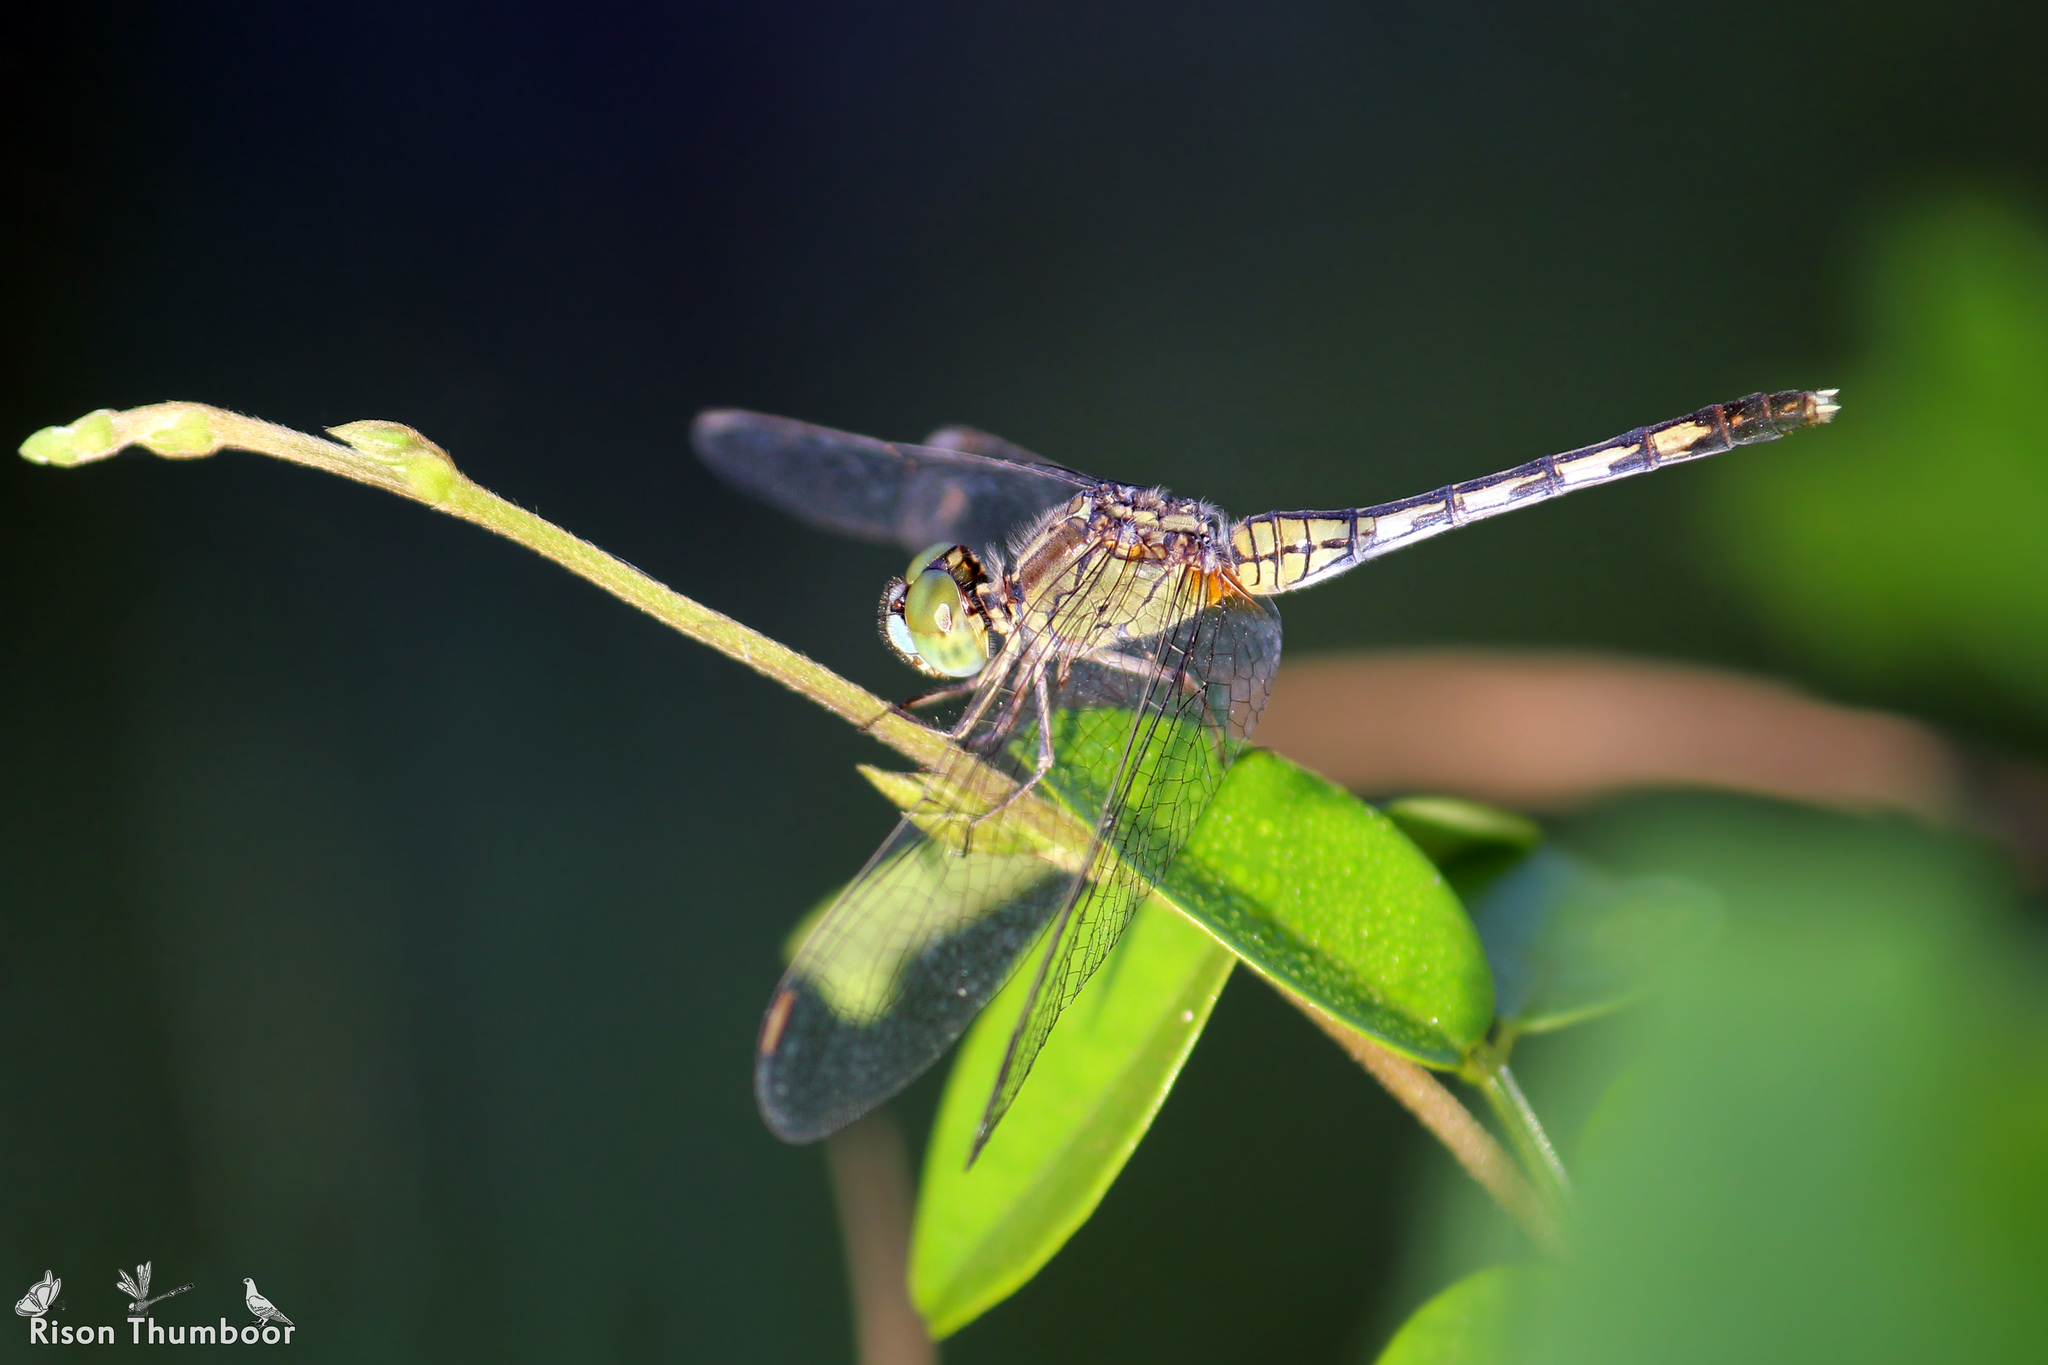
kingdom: Animalia
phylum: Arthropoda
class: Insecta
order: Odonata
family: Libellulidae
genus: Diplacodes
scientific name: Diplacodes trivialis
